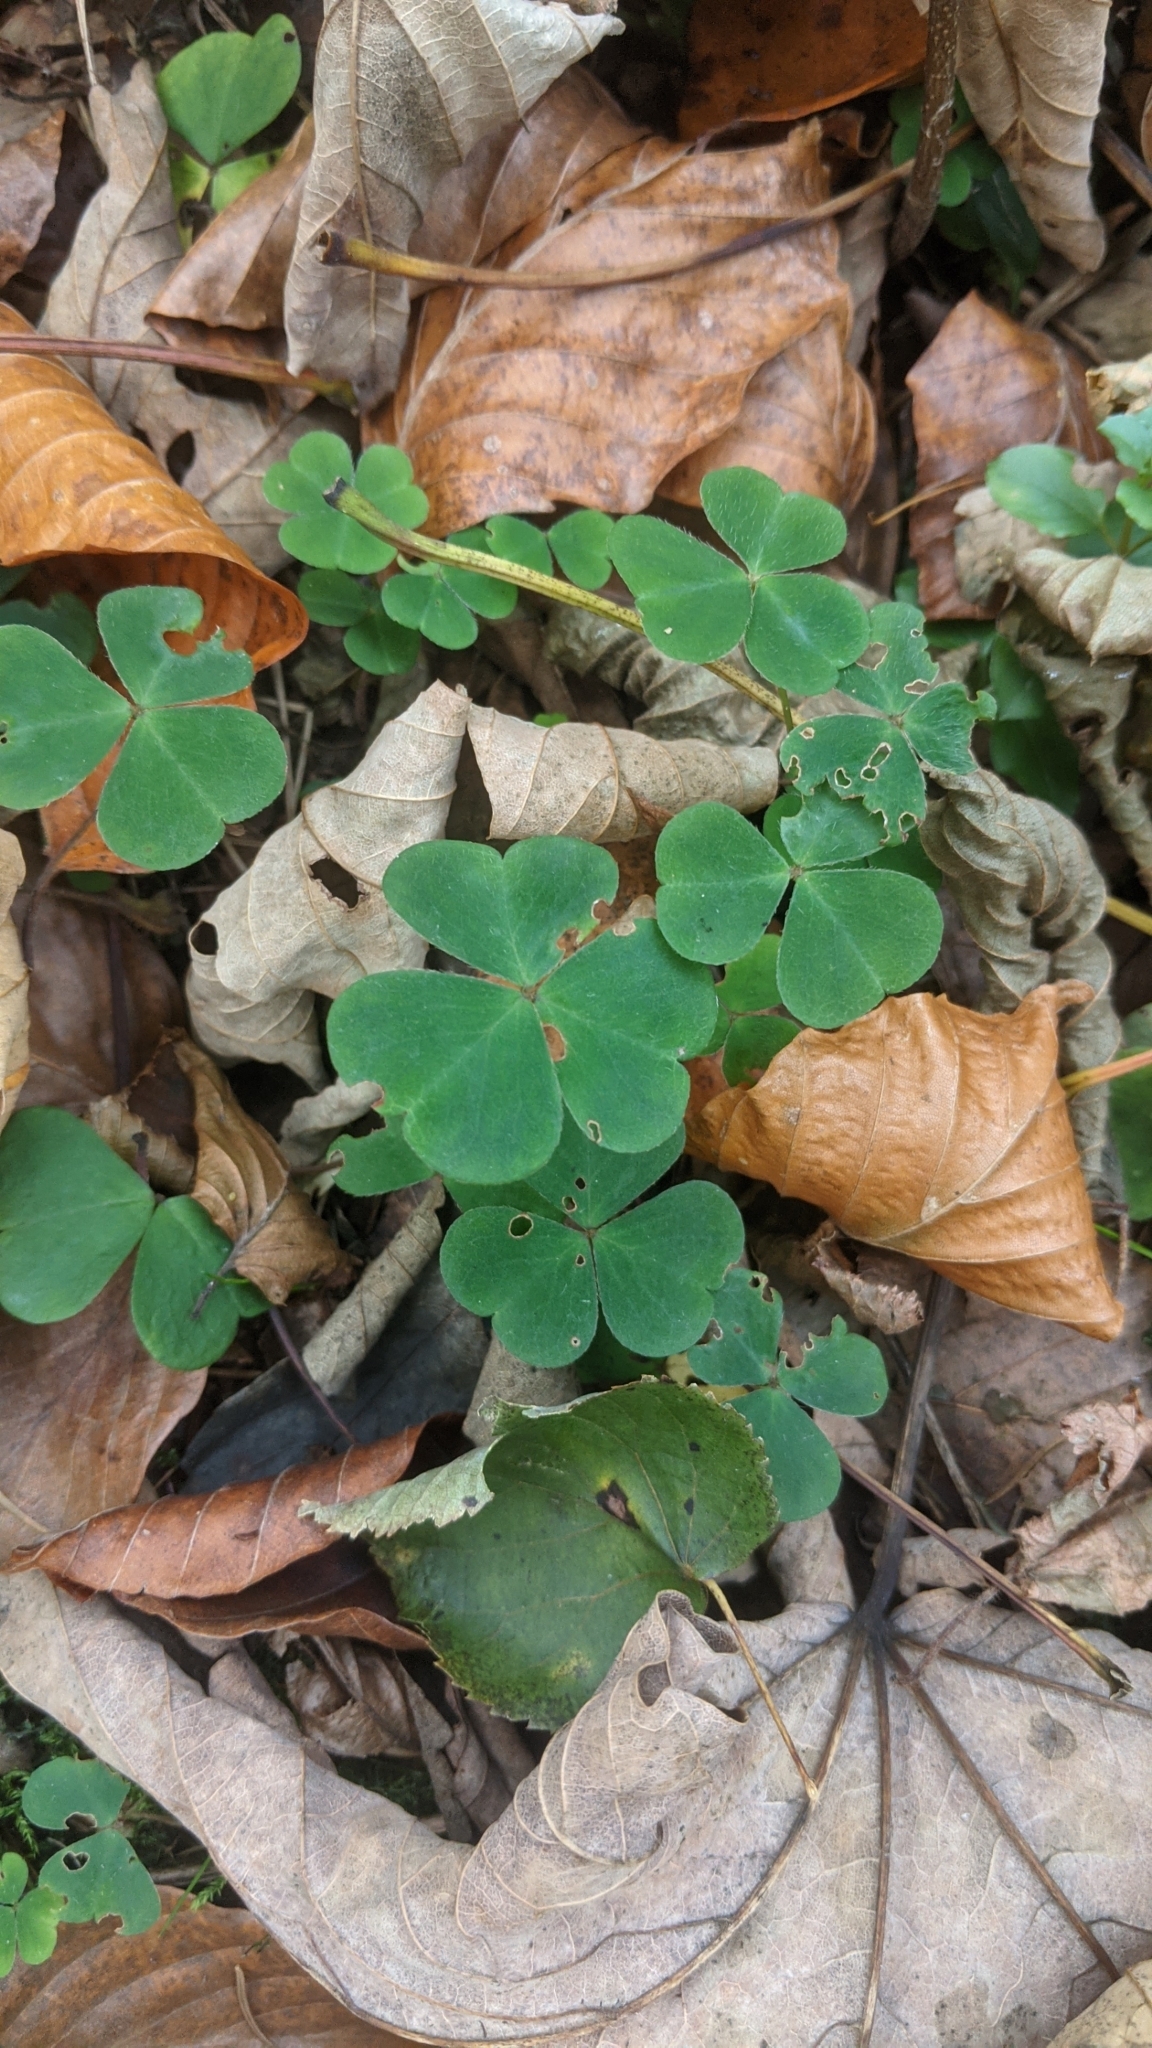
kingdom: Plantae
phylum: Tracheophyta
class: Magnoliopsida
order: Oxalidales
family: Oxalidaceae
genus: Oxalis
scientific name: Oxalis acetosella
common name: Wood-sorrel
